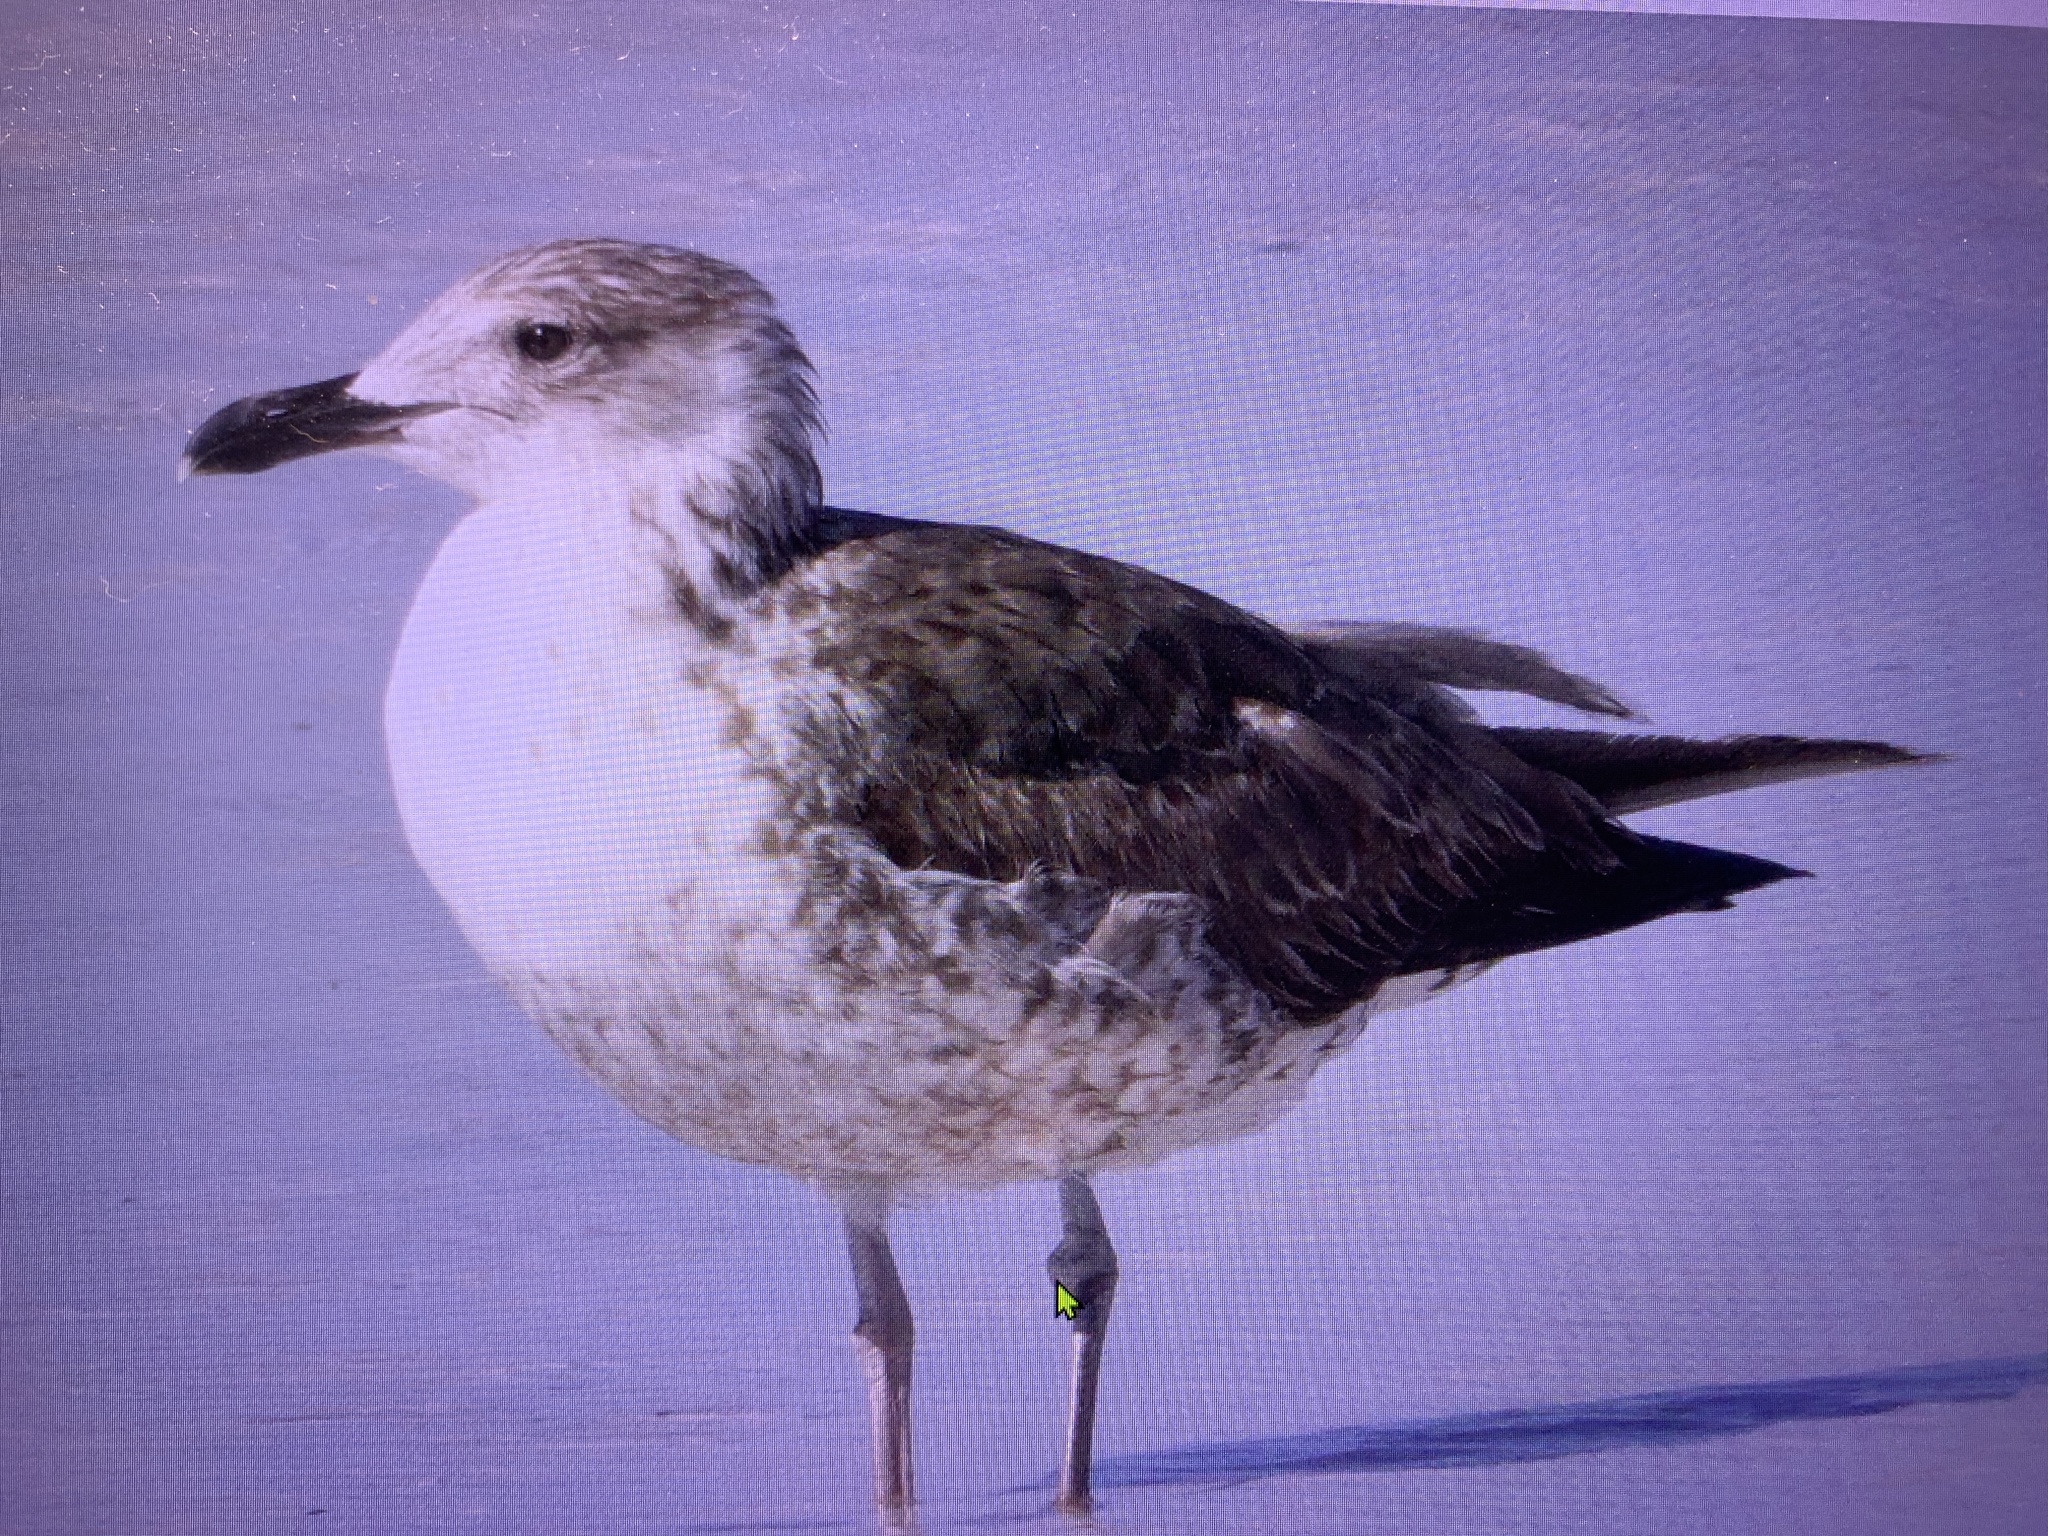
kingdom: Animalia
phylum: Chordata
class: Aves
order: Charadriiformes
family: Laridae
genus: Larus
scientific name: Larus fuscus
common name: Lesser black-backed gull
